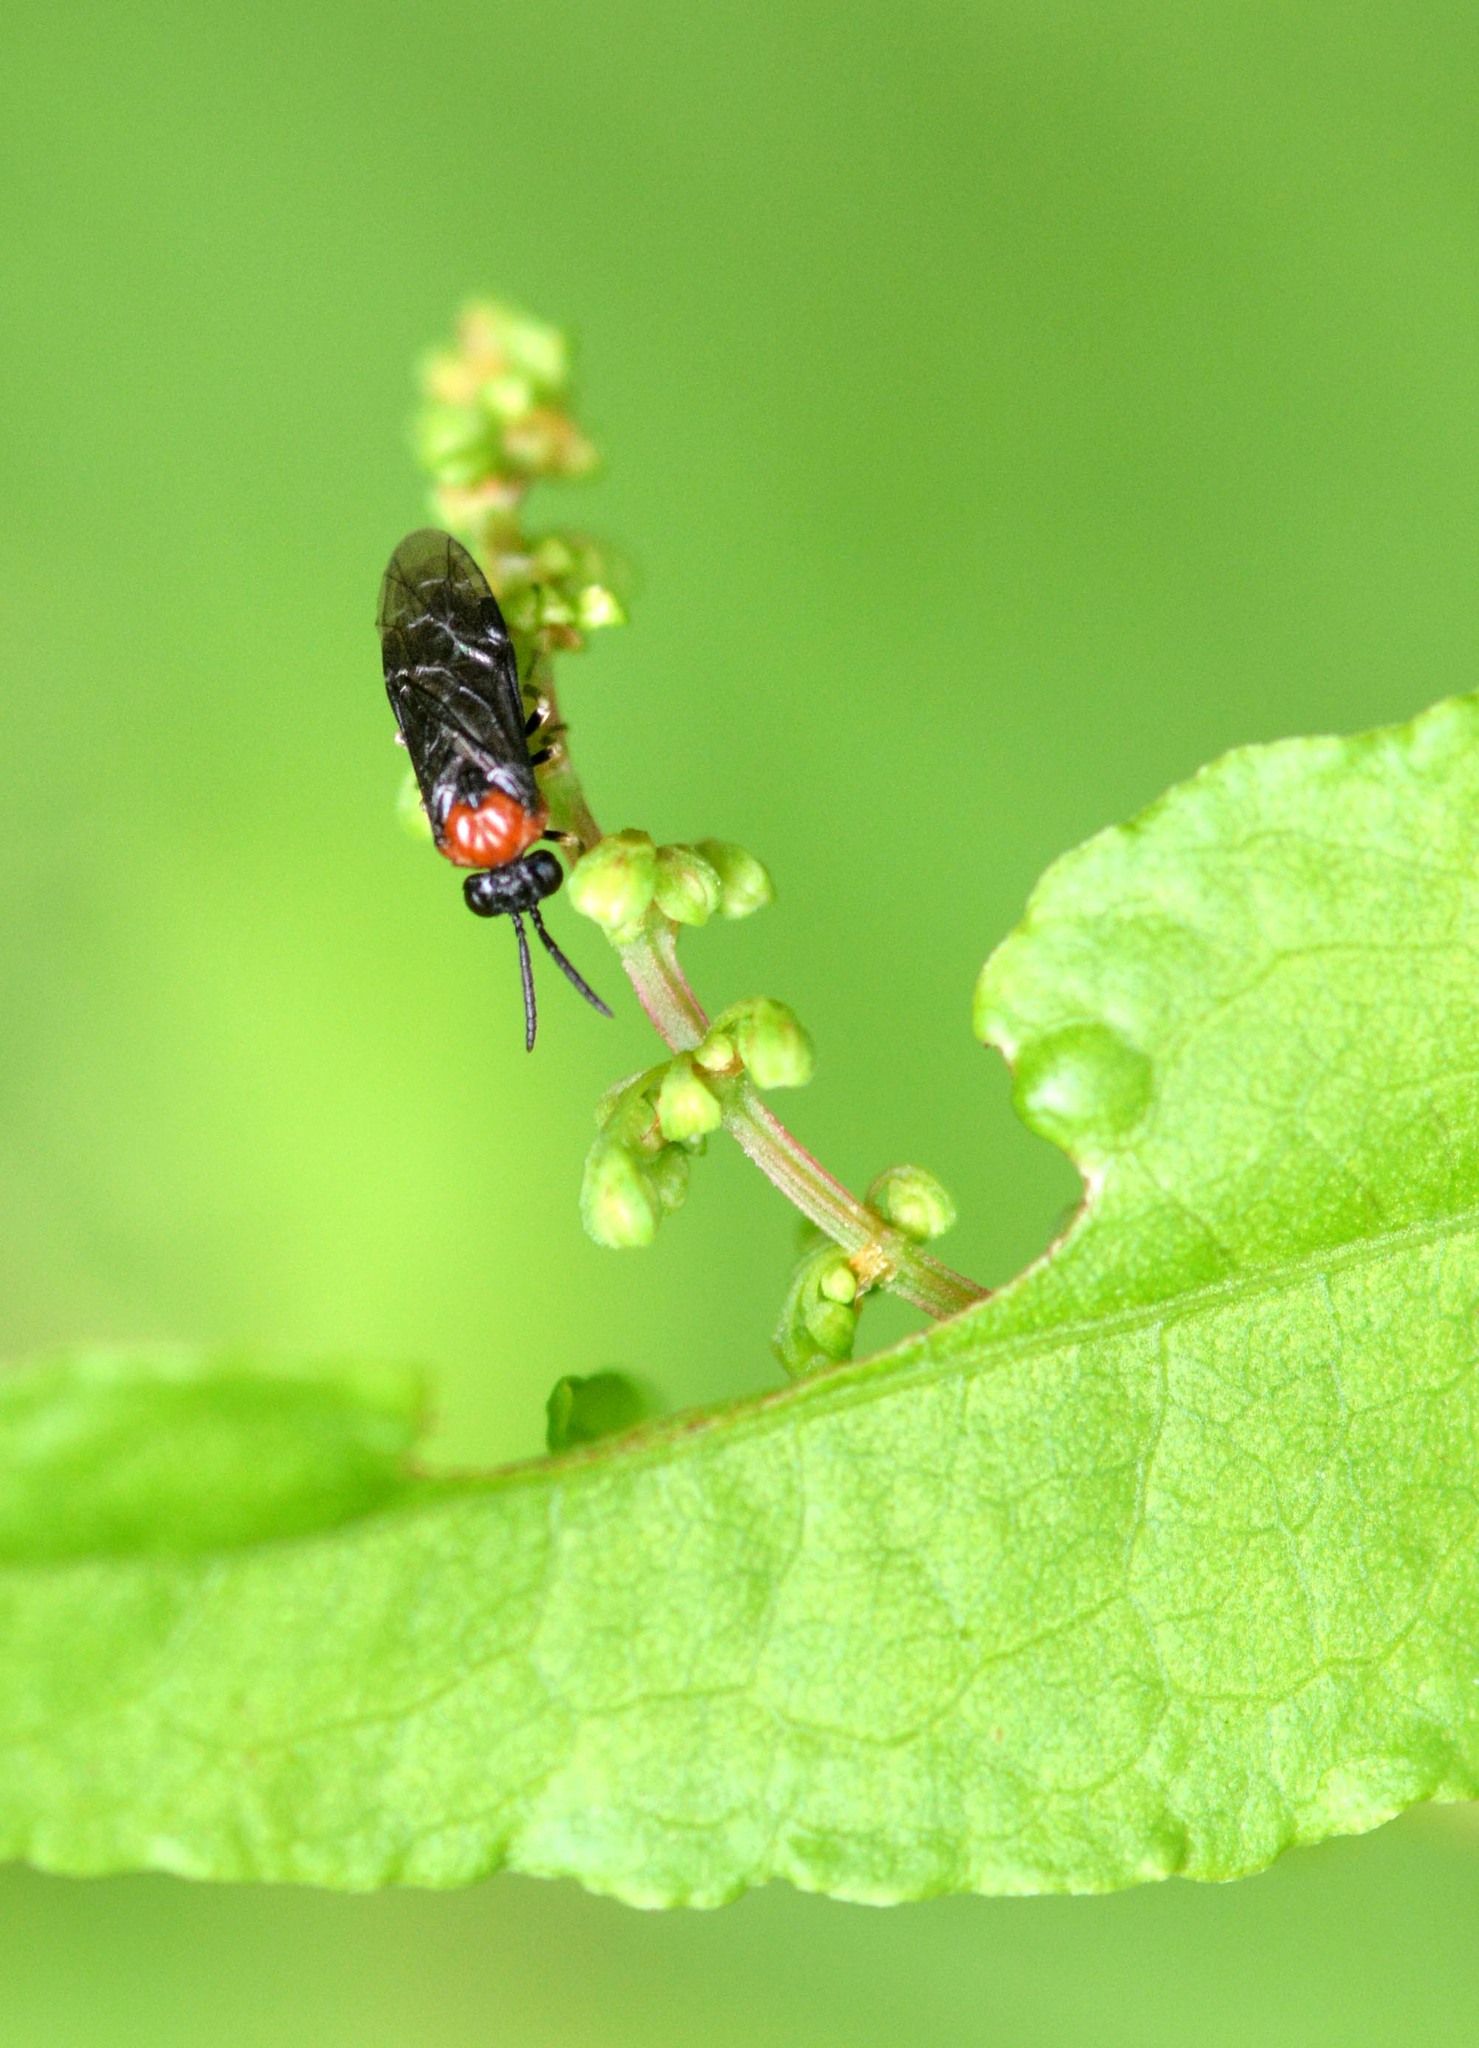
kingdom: Animalia
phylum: Arthropoda
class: Insecta
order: Hymenoptera
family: Tenthredinidae
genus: Eutomostethus
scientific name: Eutomostethus ephippium
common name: Tenthredid wasp
